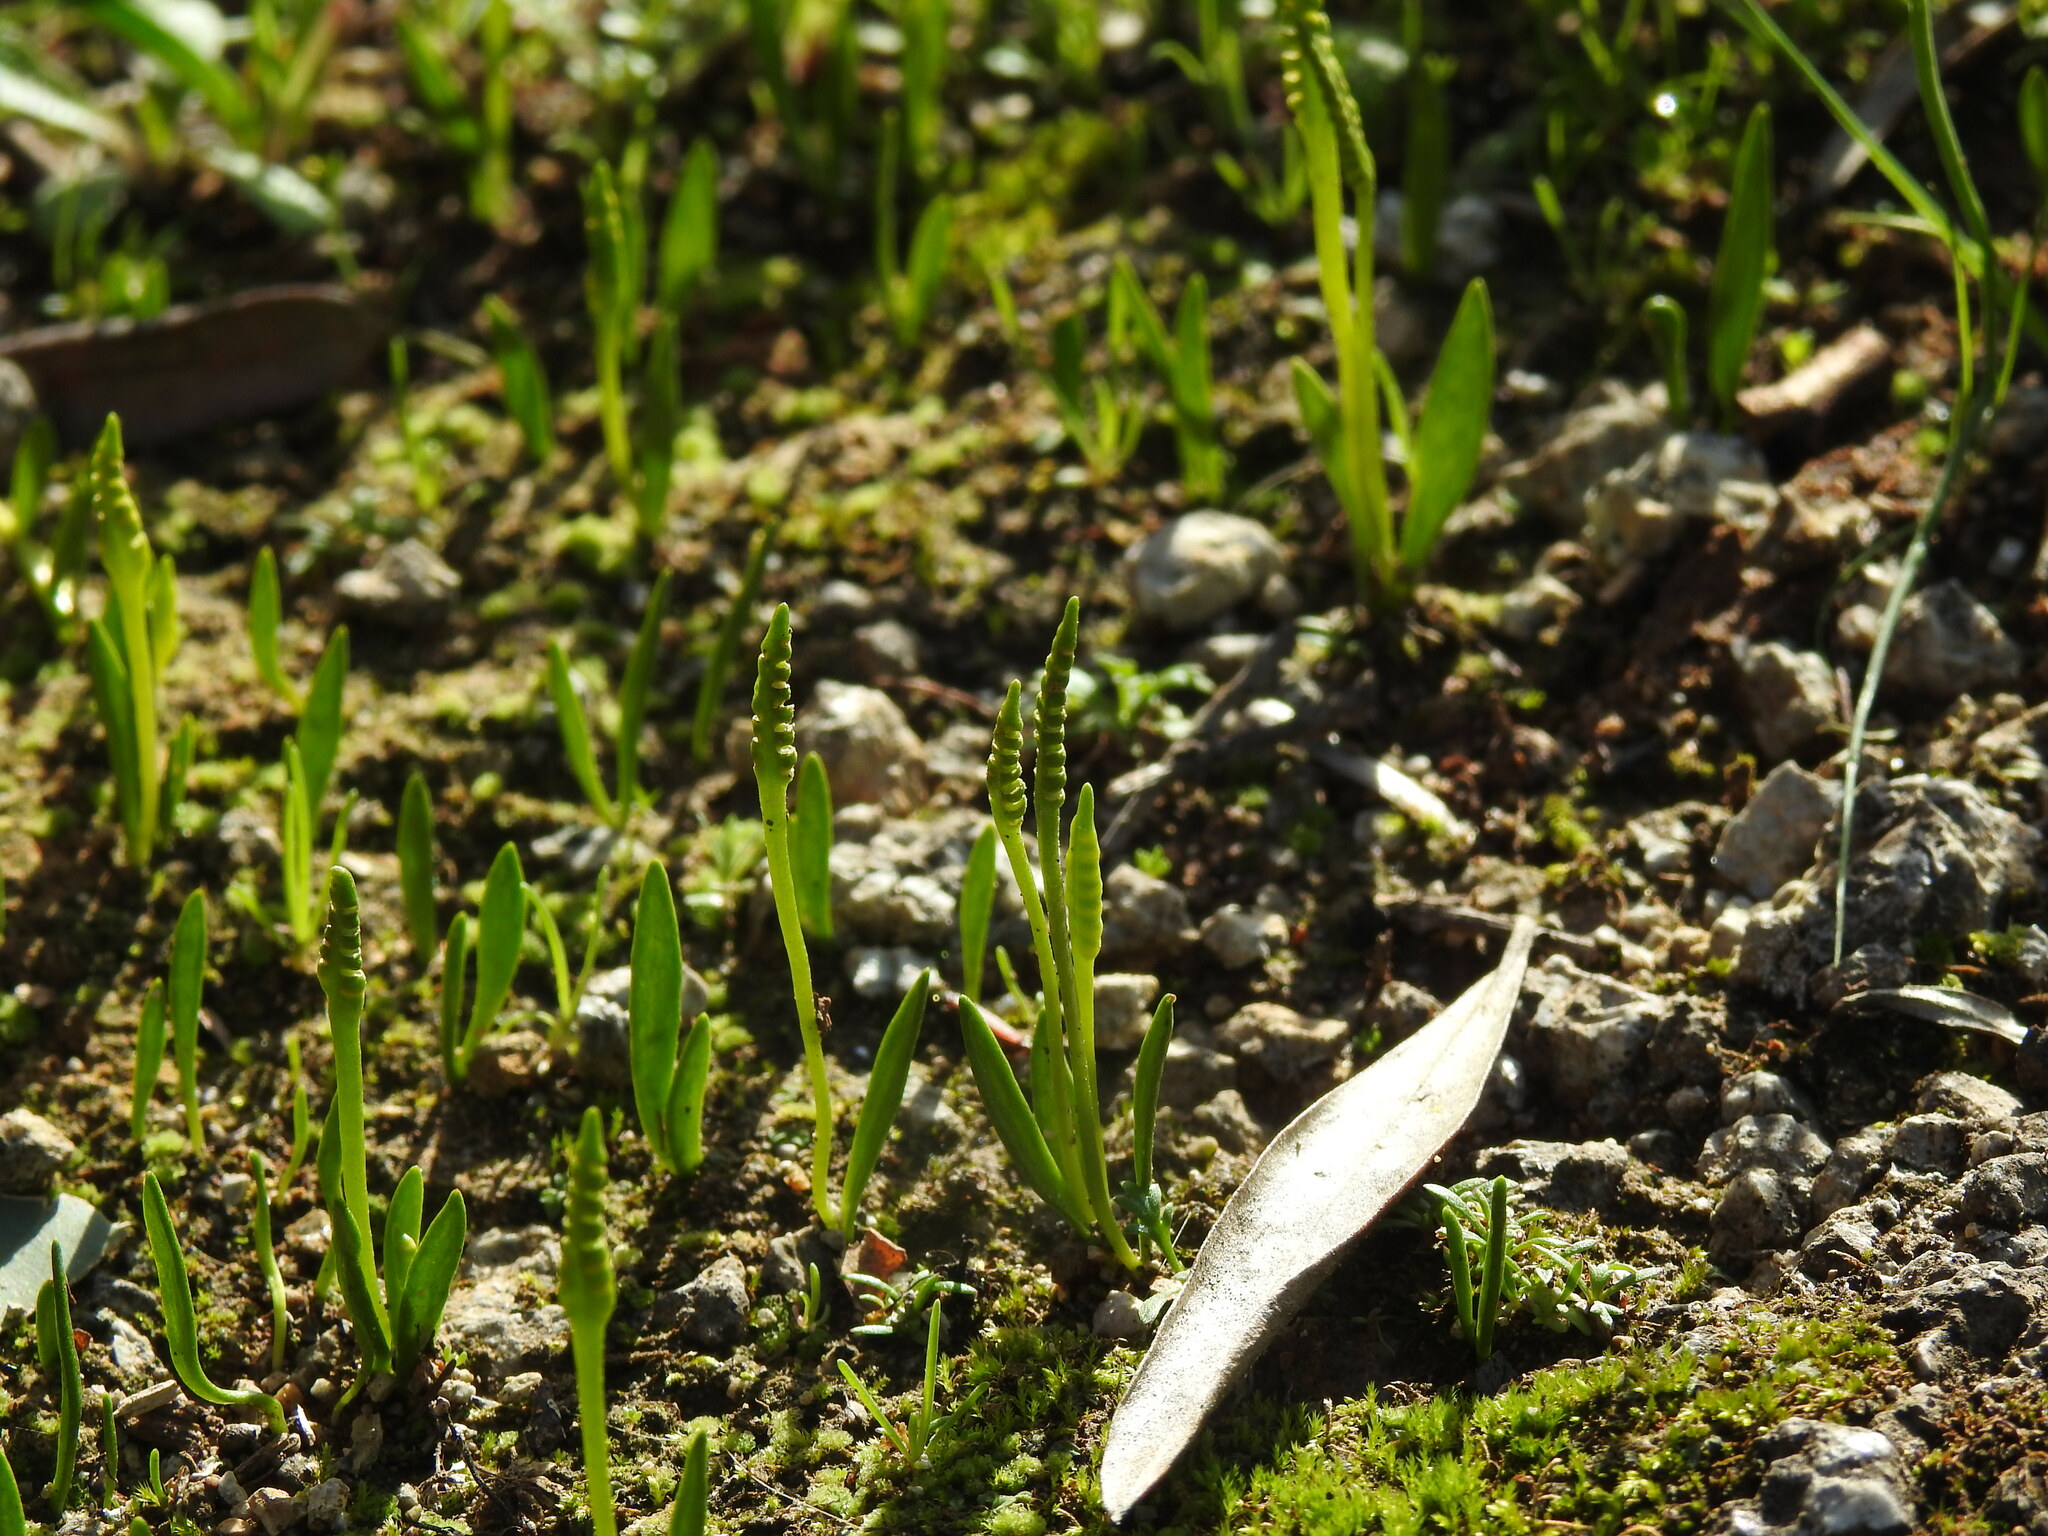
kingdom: Plantae
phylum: Tracheophyta
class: Polypodiopsida
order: Ophioglossales
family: Ophioglossaceae
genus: Ophioglossum
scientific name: Ophioglossum lusitanicum
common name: Least adder's-tongue
